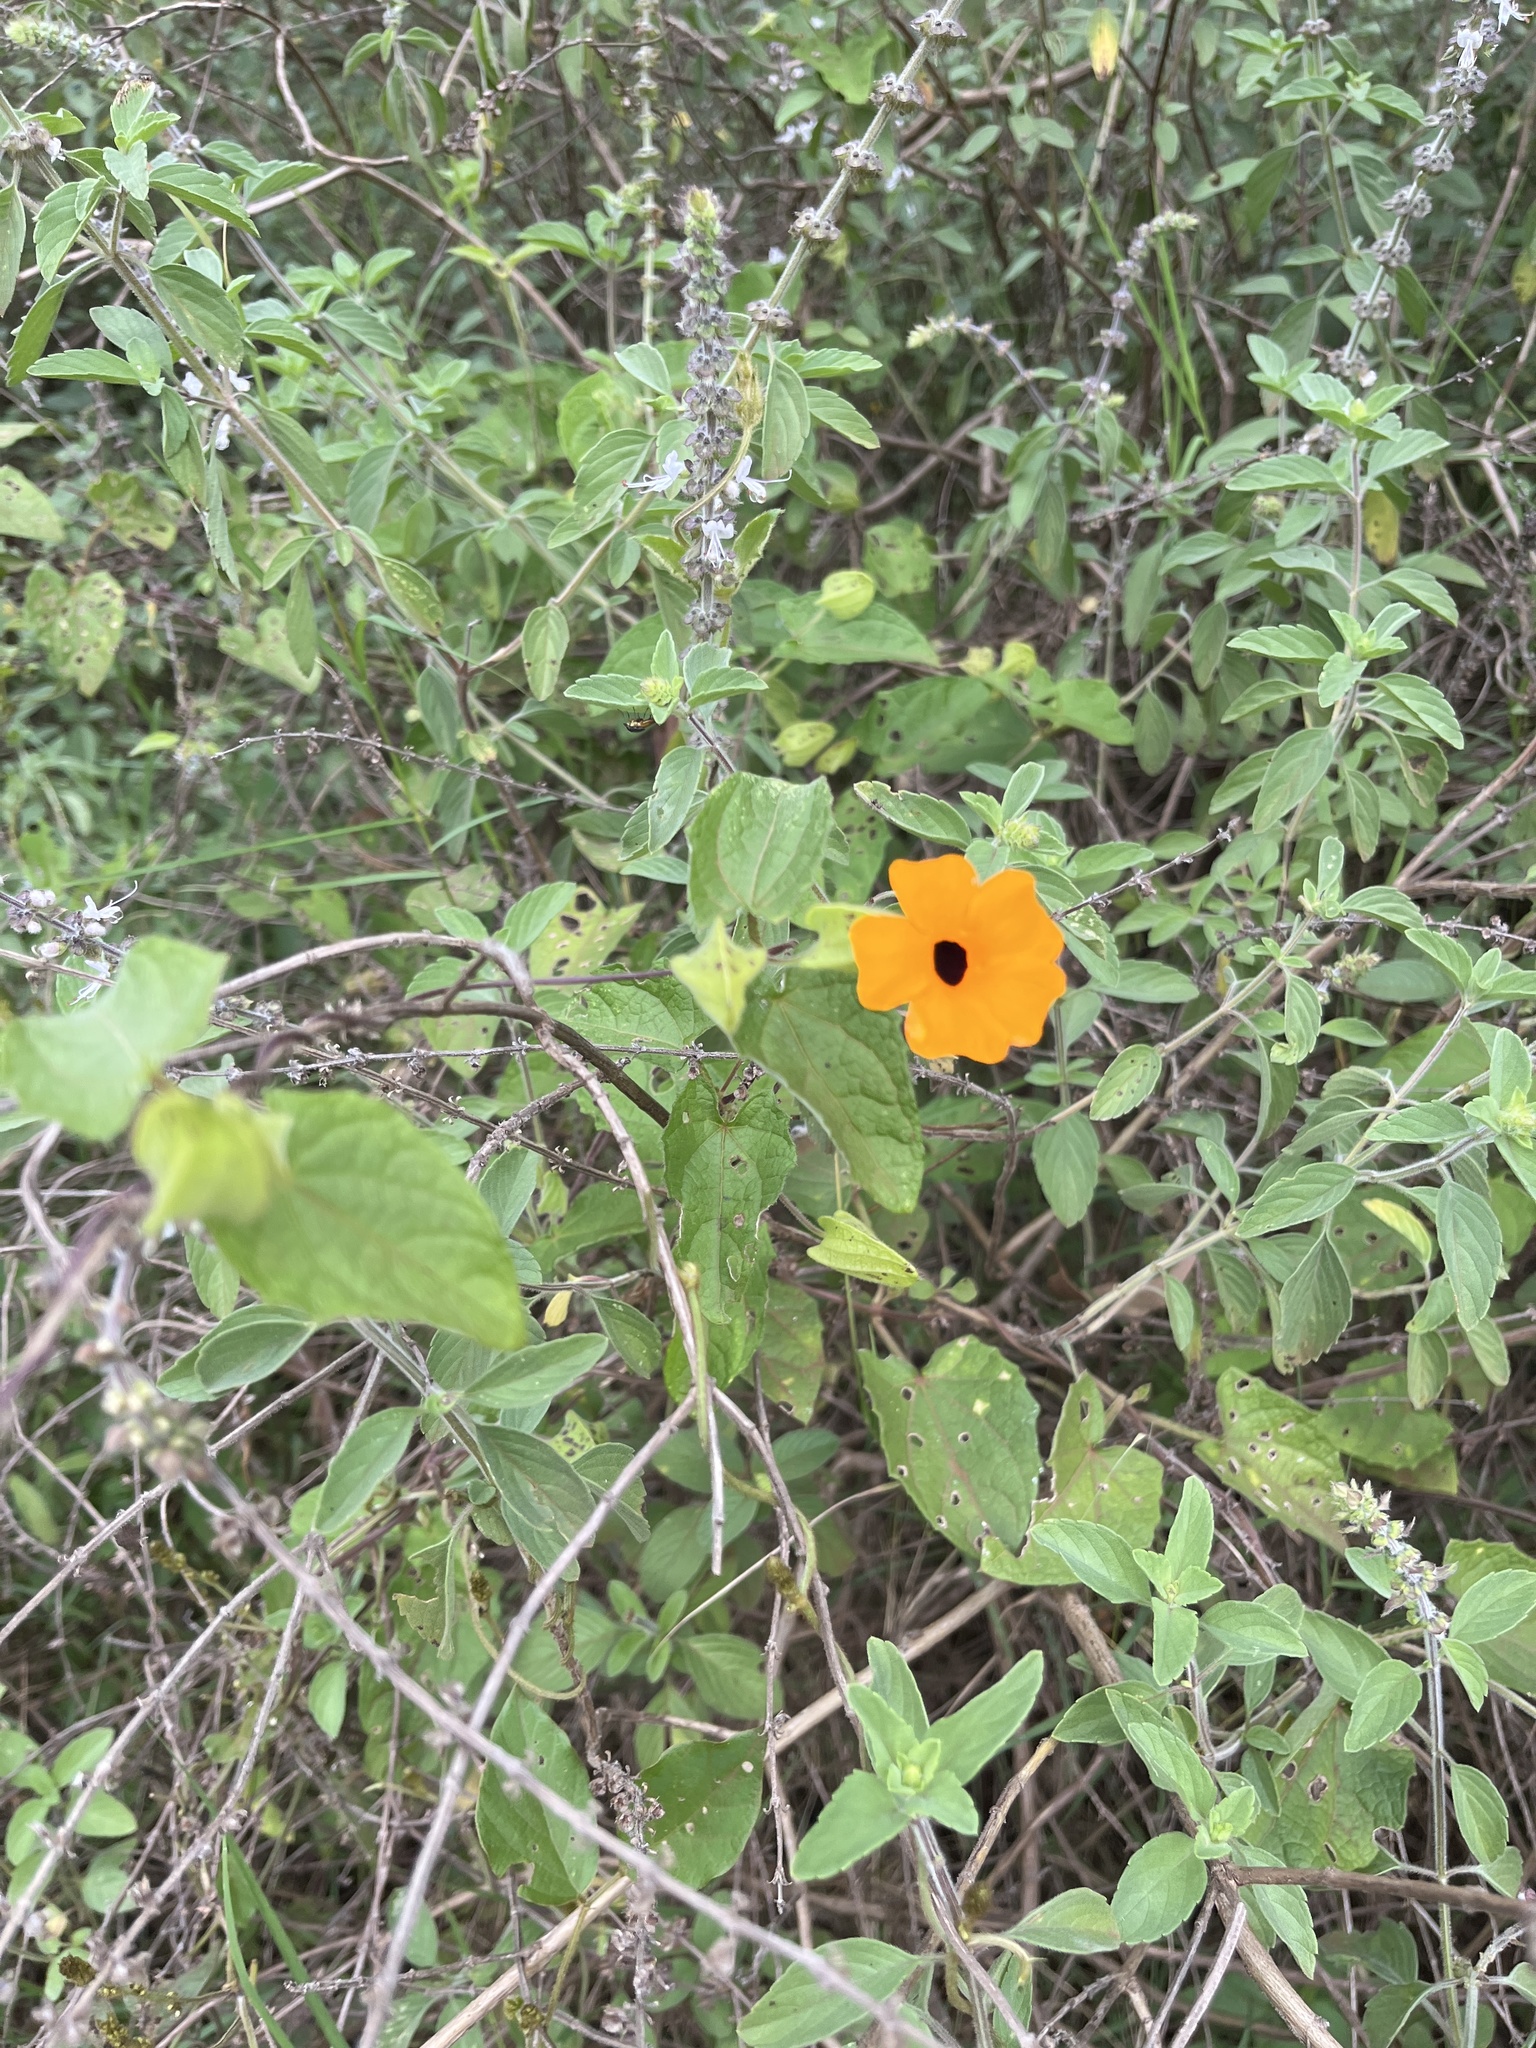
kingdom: Plantae
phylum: Tracheophyta
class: Magnoliopsida
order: Lamiales
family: Acanthaceae
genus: Thunbergia
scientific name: Thunbergia alata
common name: Blackeyed susan vine
